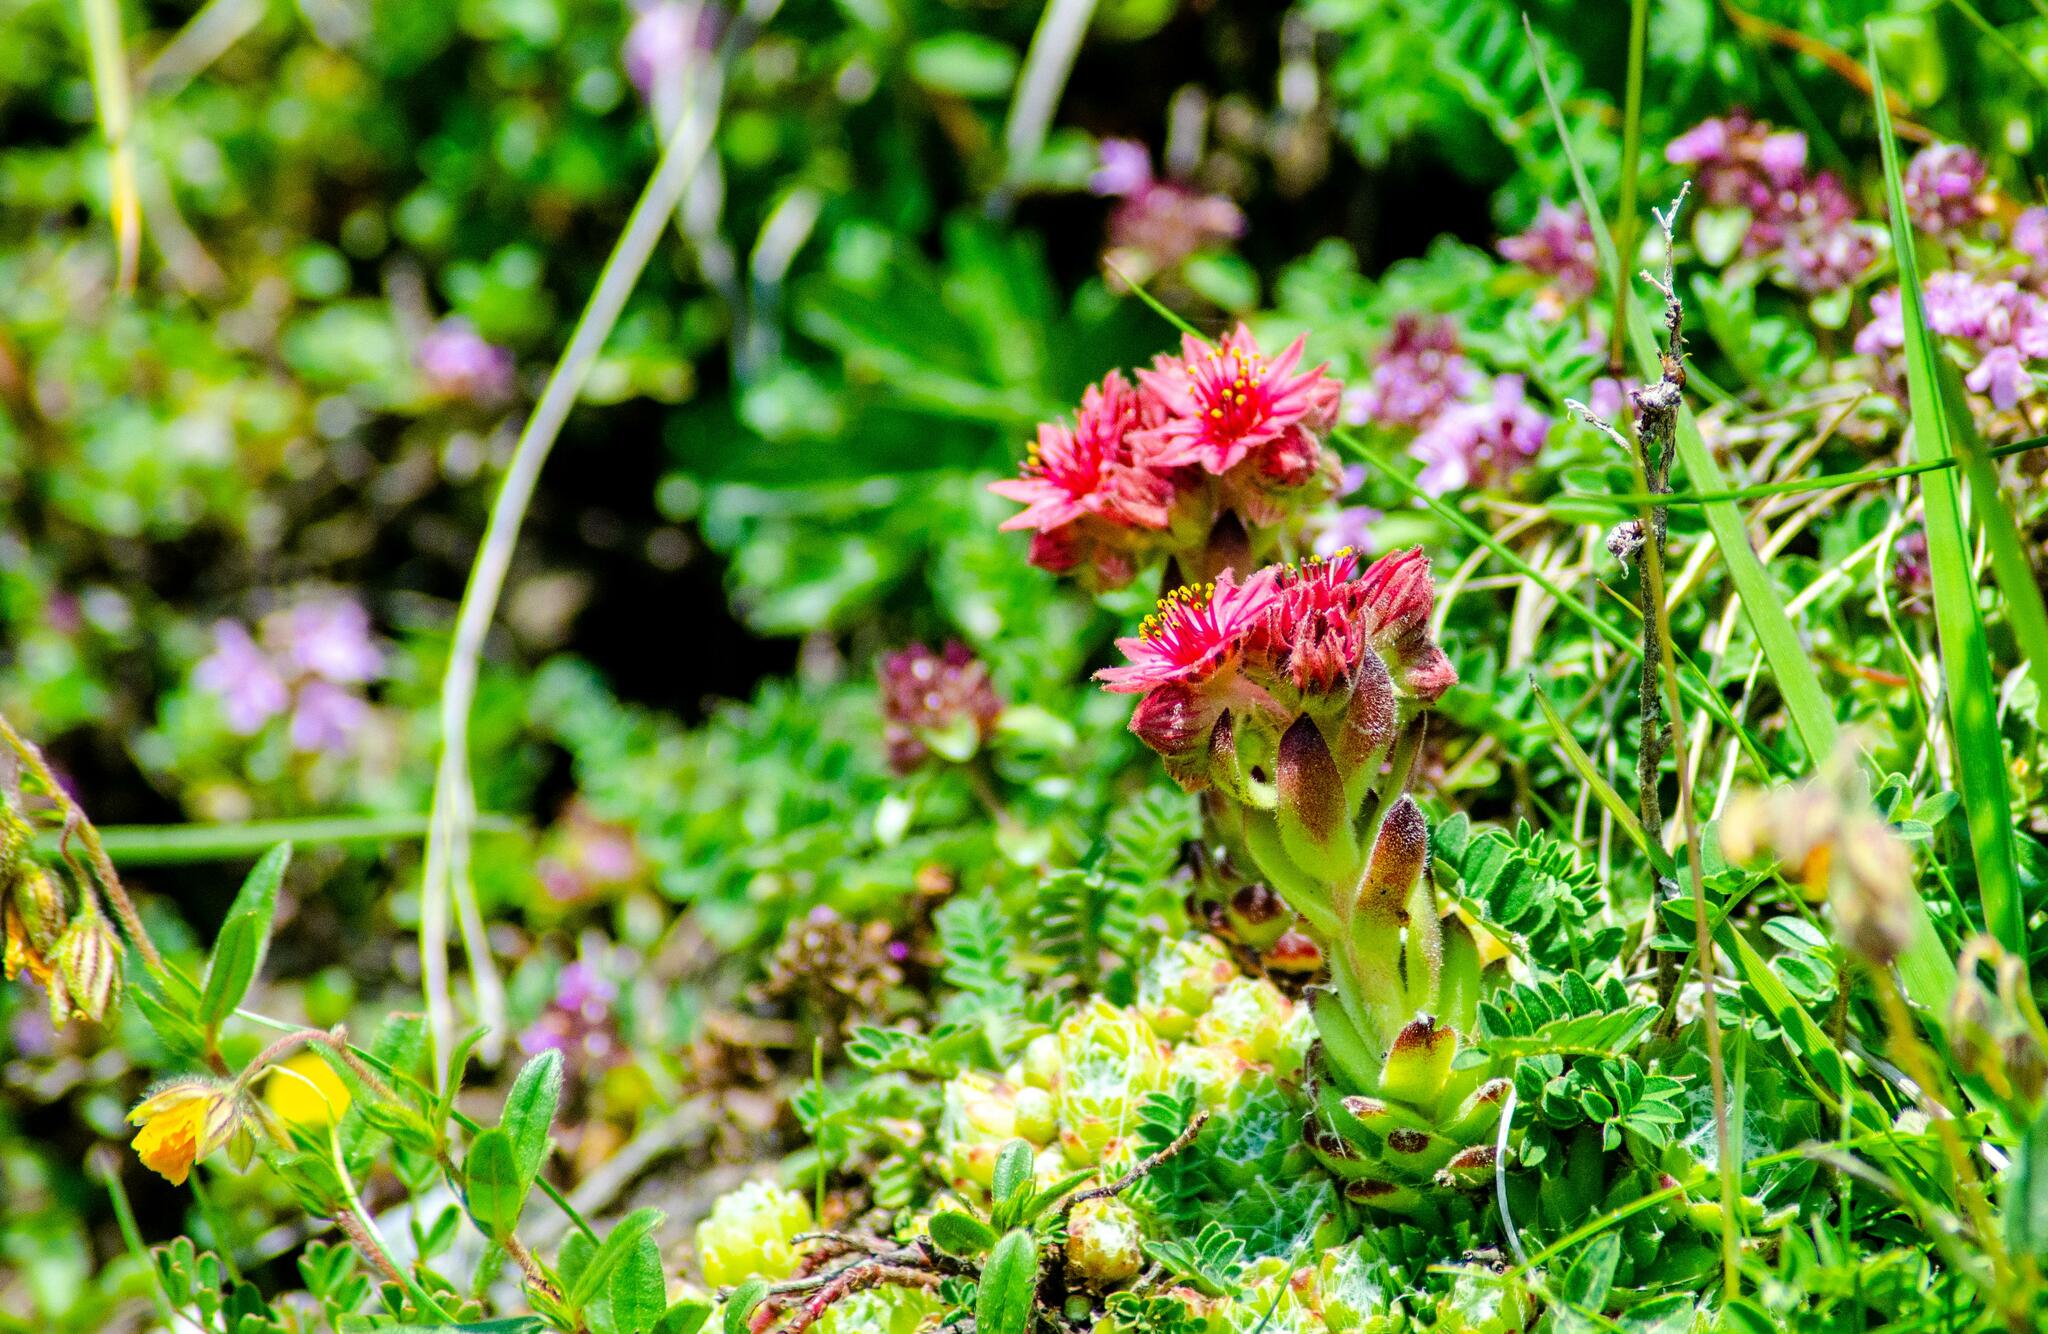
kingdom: Plantae
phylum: Tracheophyta
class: Magnoliopsida
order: Saxifragales
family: Crassulaceae
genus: Sempervivum
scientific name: Sempervivum arachnoideum
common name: Cobweb house-leek
